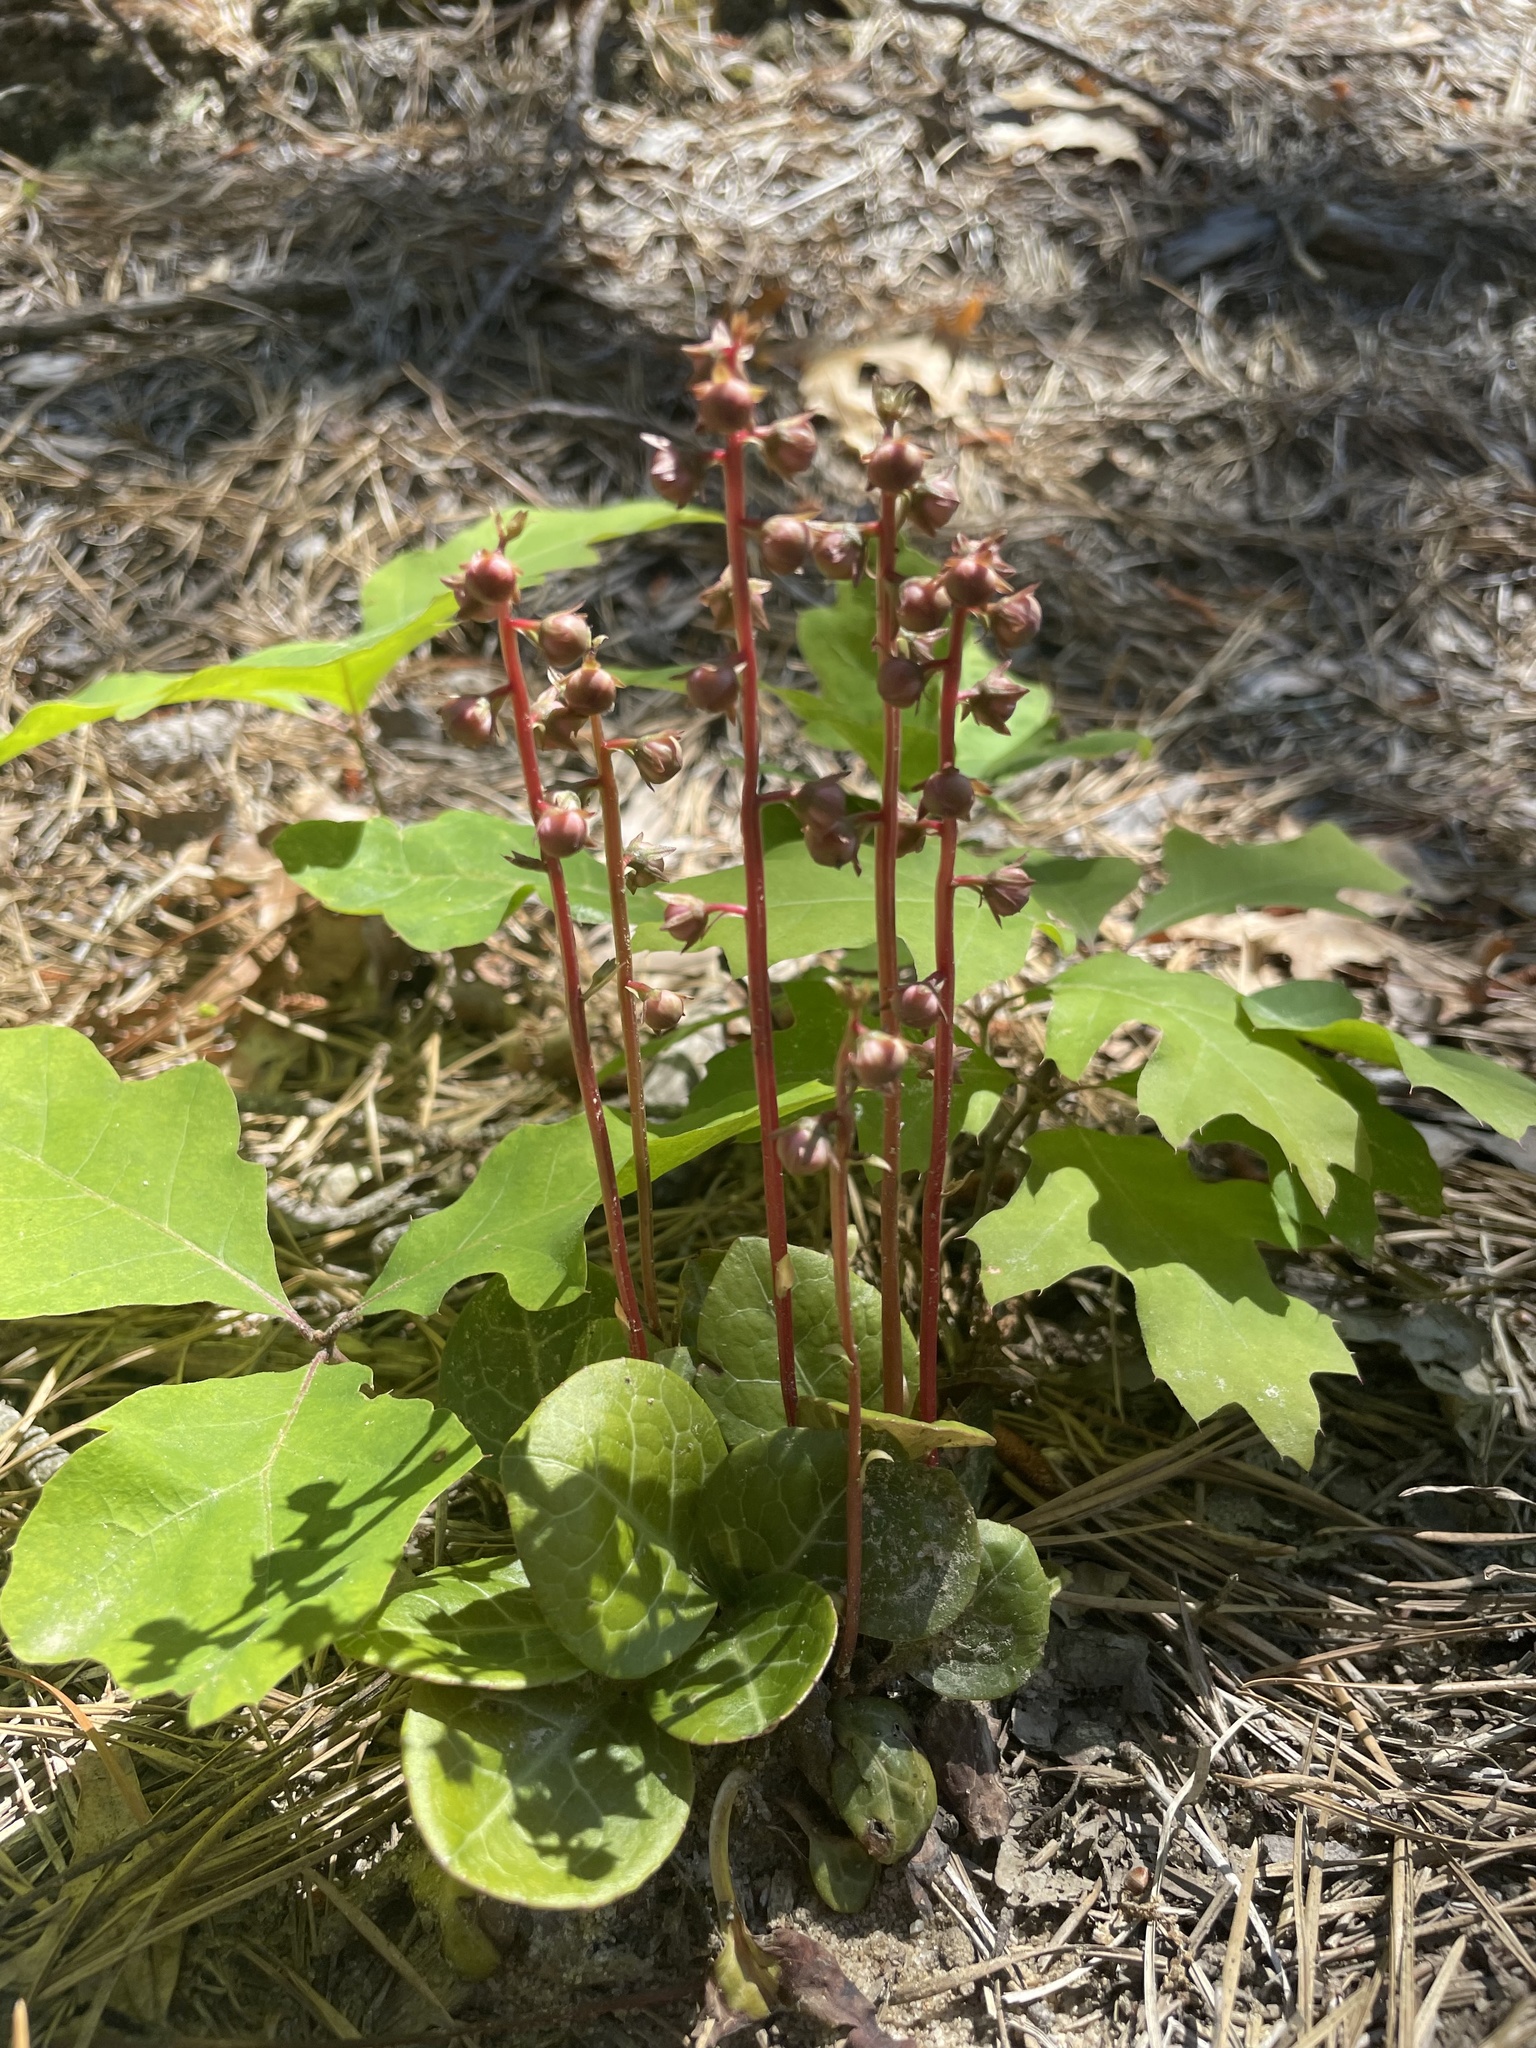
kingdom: Plantae
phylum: Tracheophyta
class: Magnoliopsida
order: Ericales
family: Ericaceae
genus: Pyrola
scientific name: Pyrola americana
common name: American wintergreen
